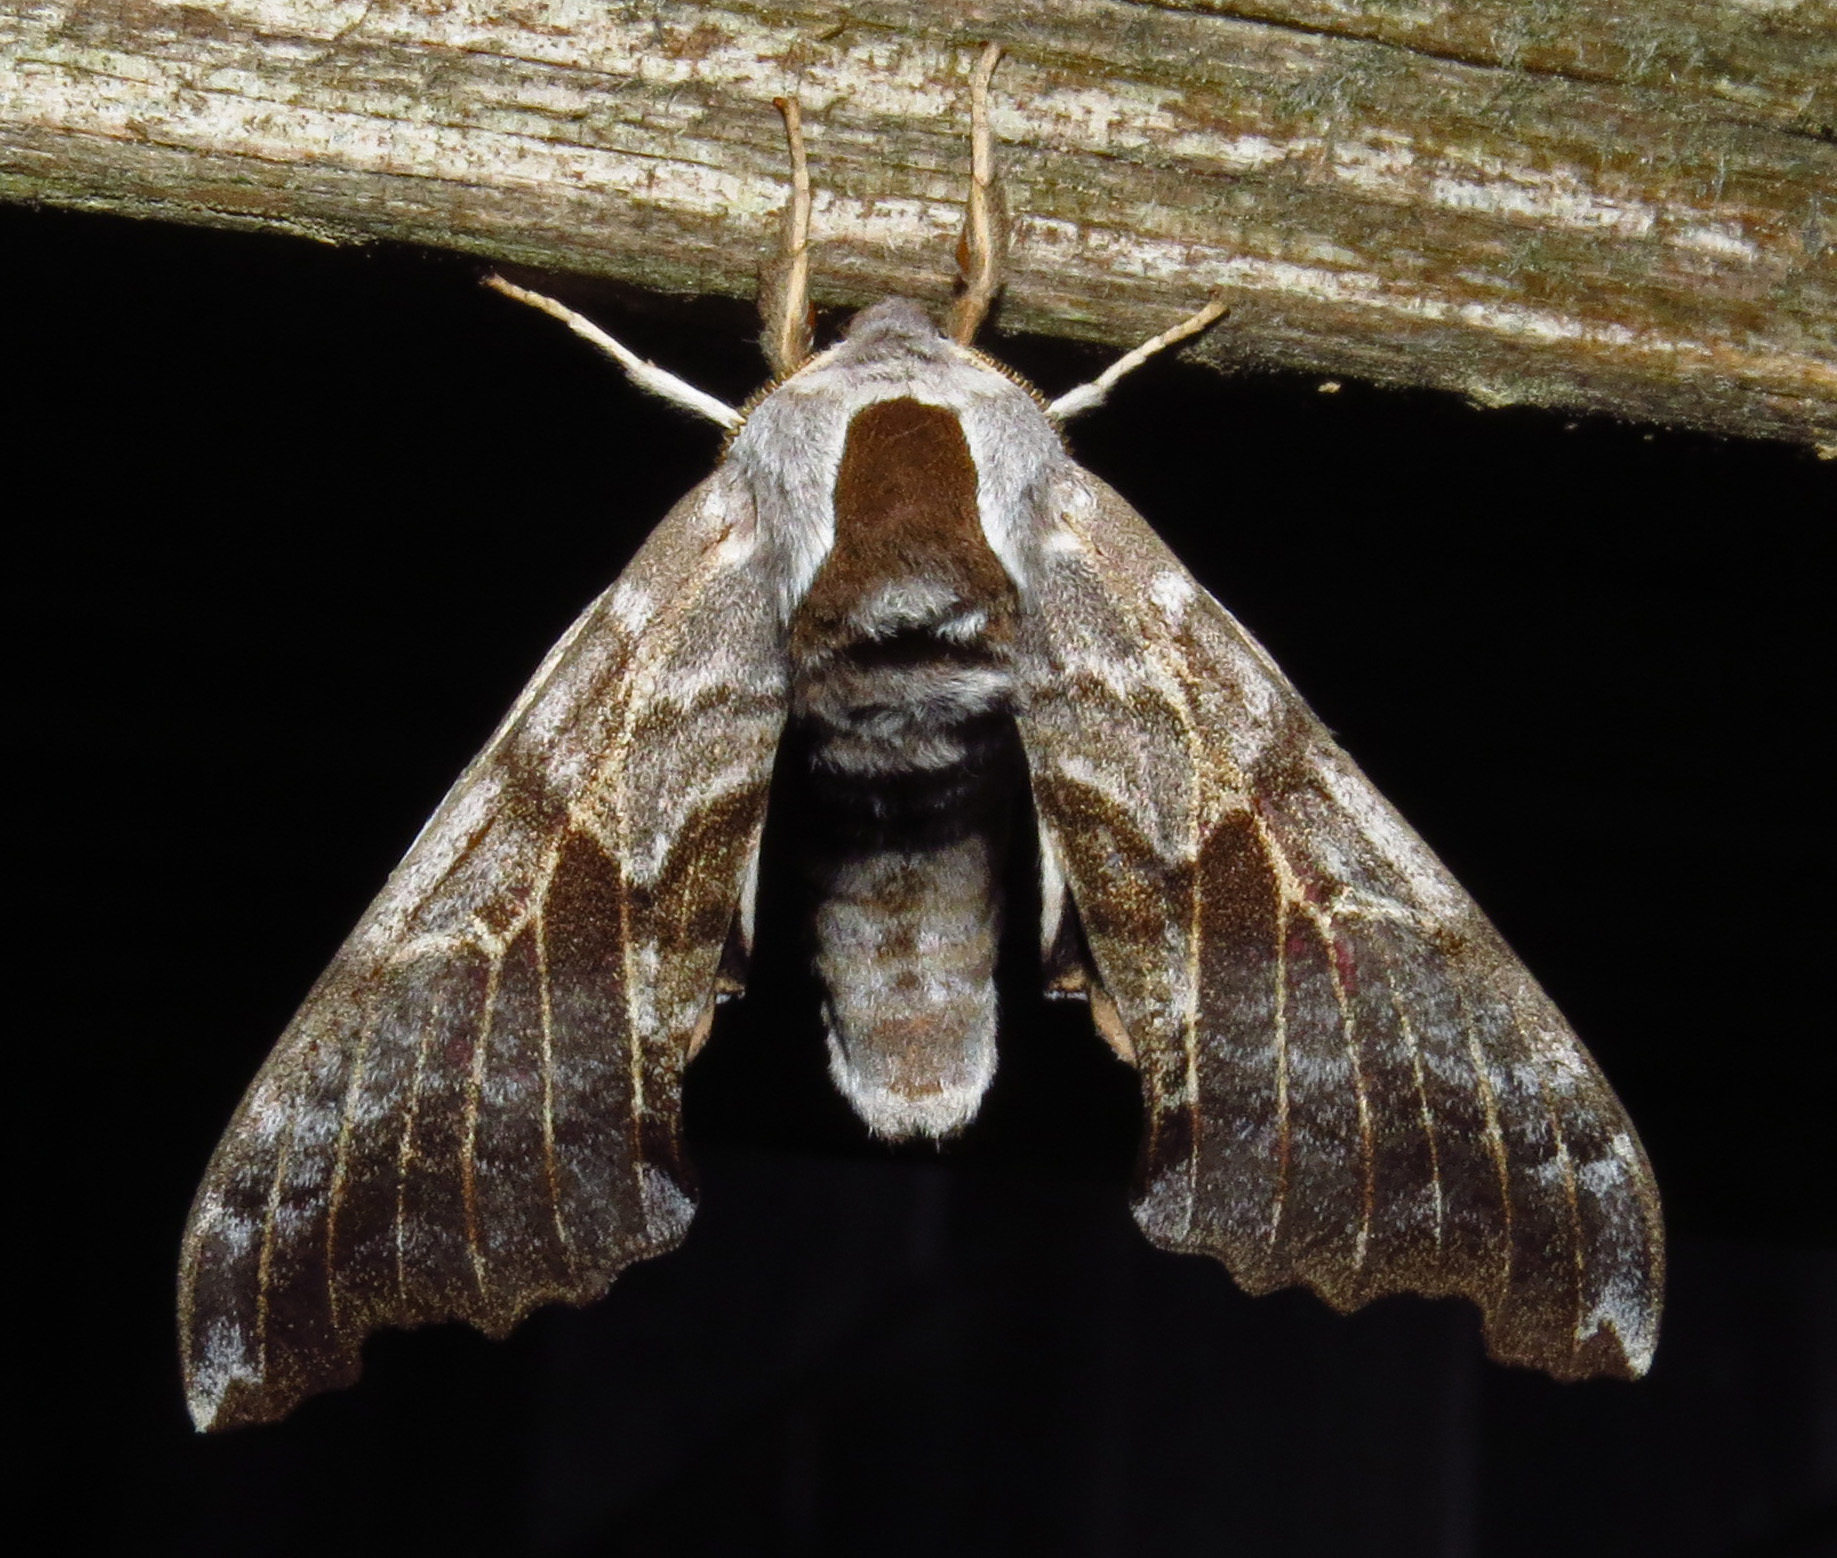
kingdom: Animalia
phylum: Arthropoda
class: Insecta
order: Lepidoptera
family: Sphingidae
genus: Smerinthus
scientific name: Smerinthus cerisyi
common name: Cerisy's sphinx moth
